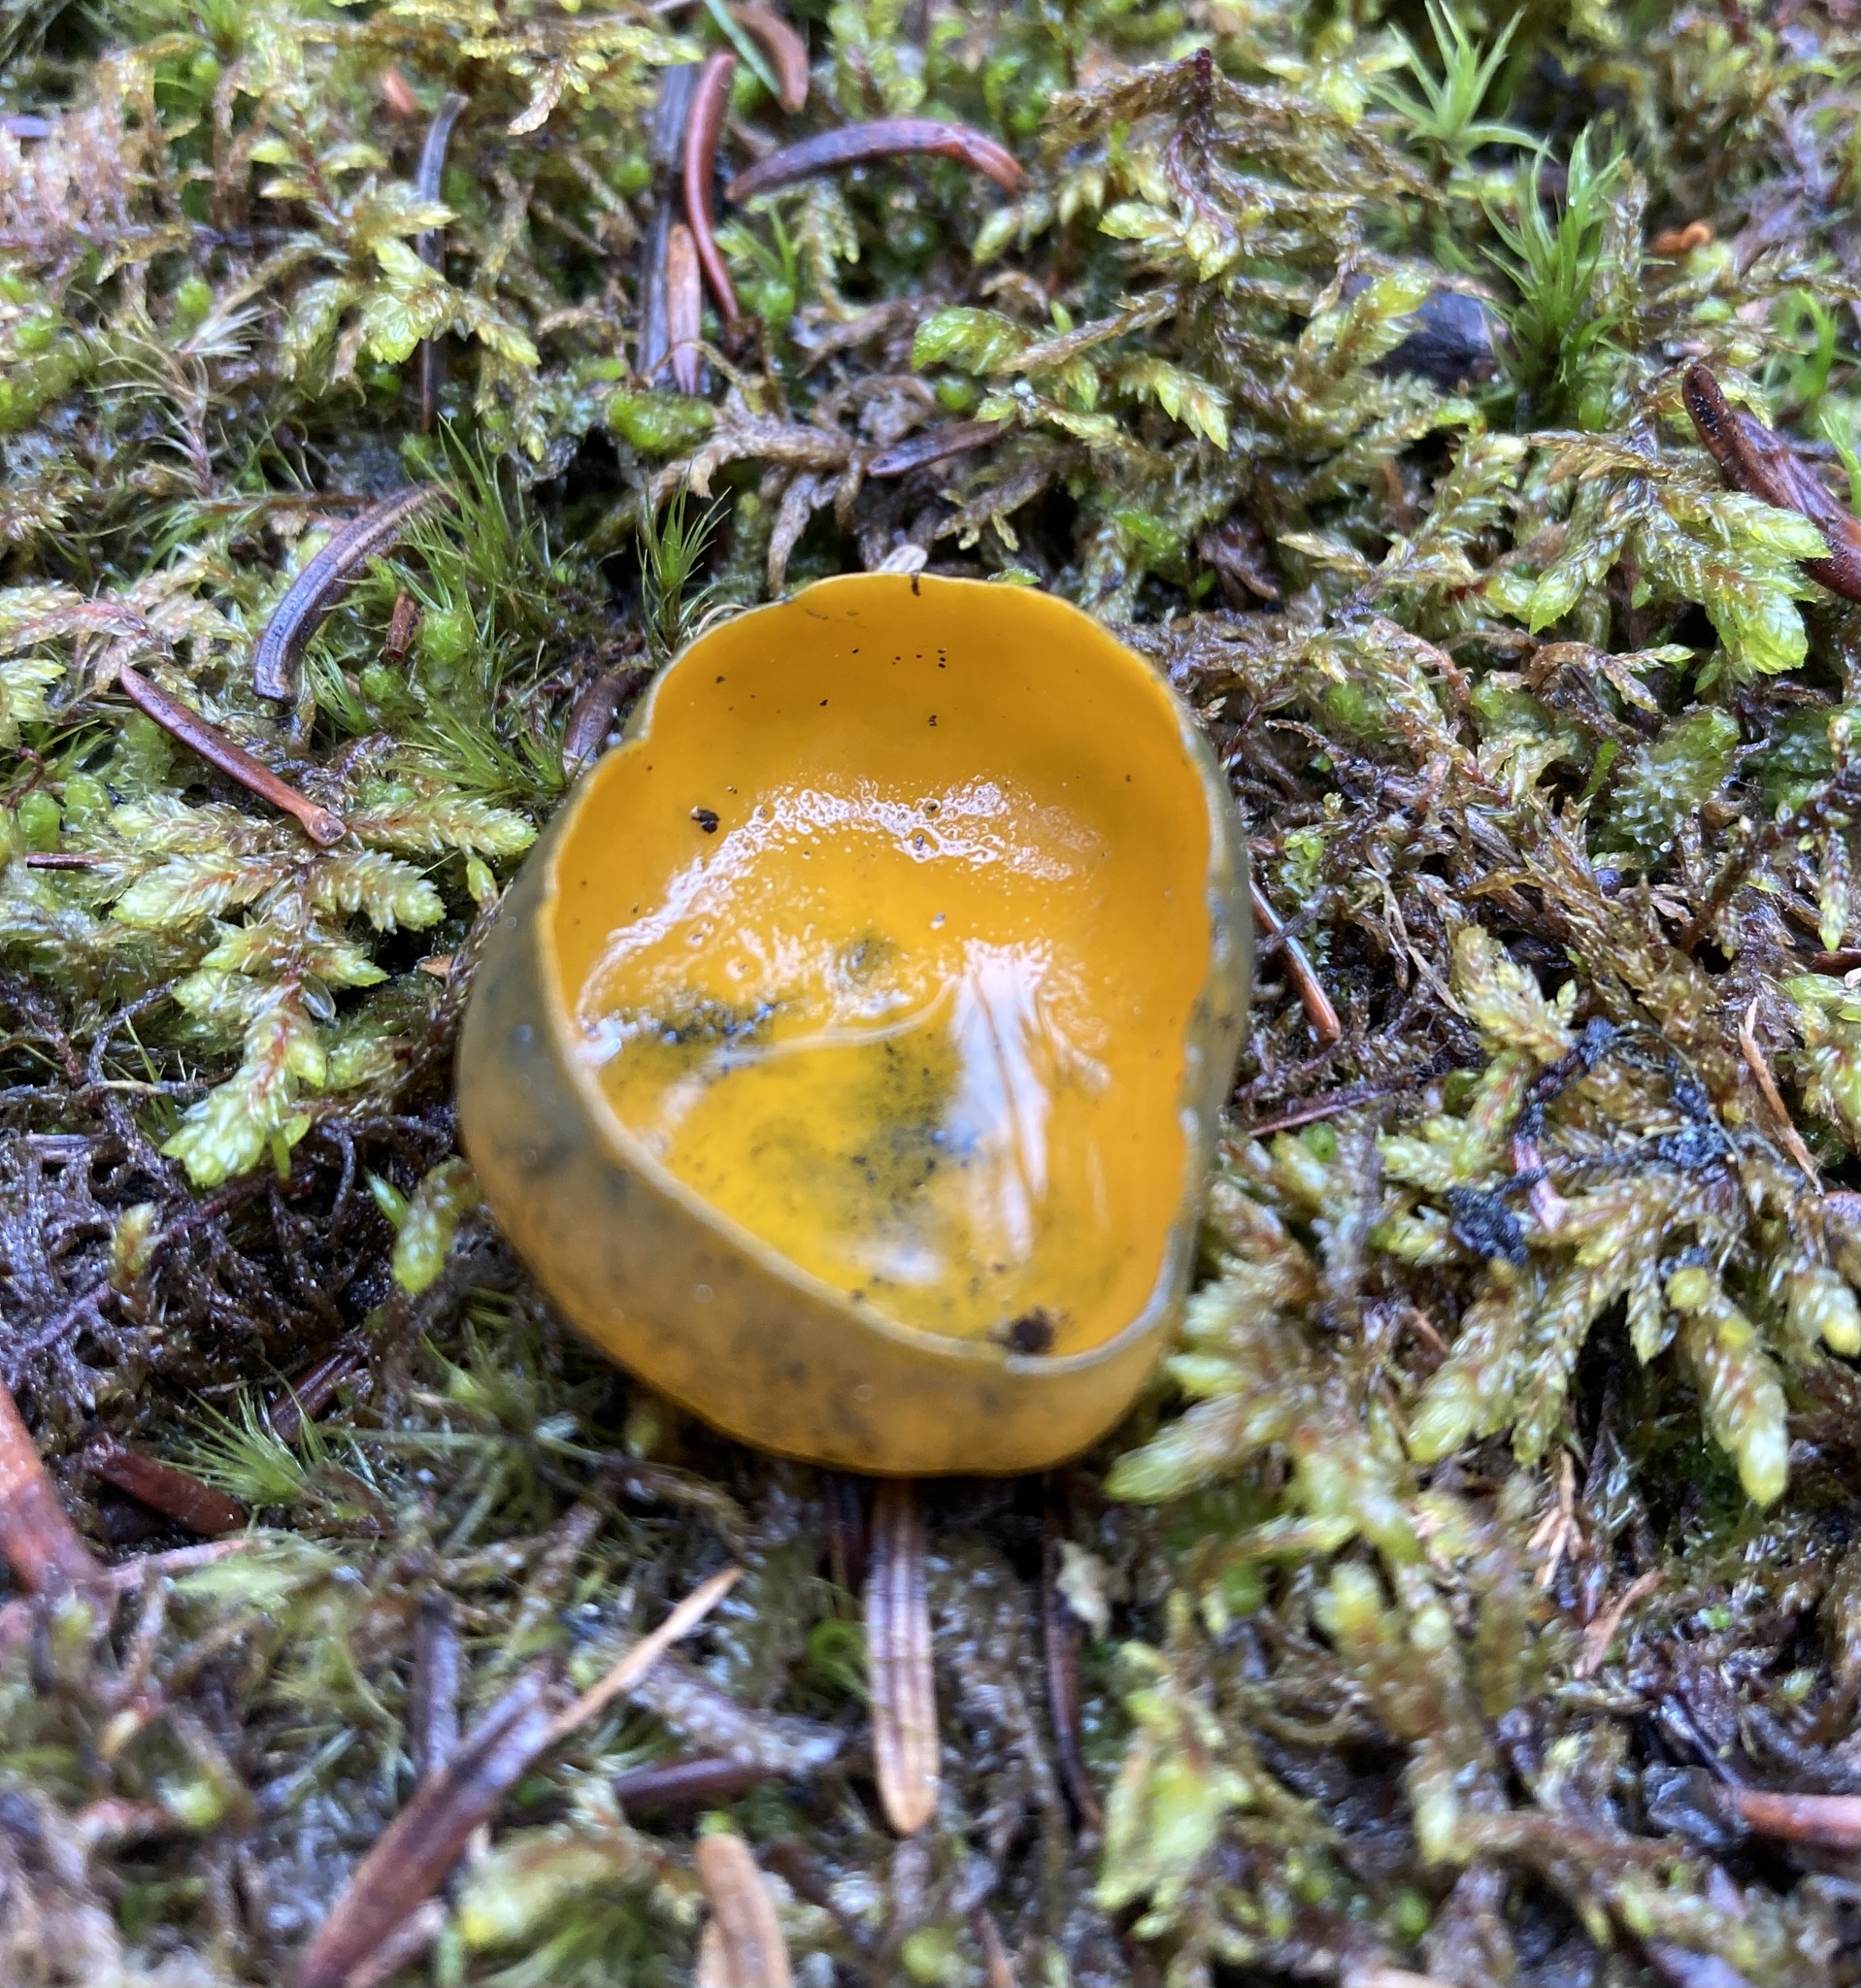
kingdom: Fungi
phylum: Ascomycota
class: Pezizomycetes
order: Pezizales
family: Caloscyphaceae
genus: Caloscypha
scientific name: Caloscypha fulgens
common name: Golden cup
